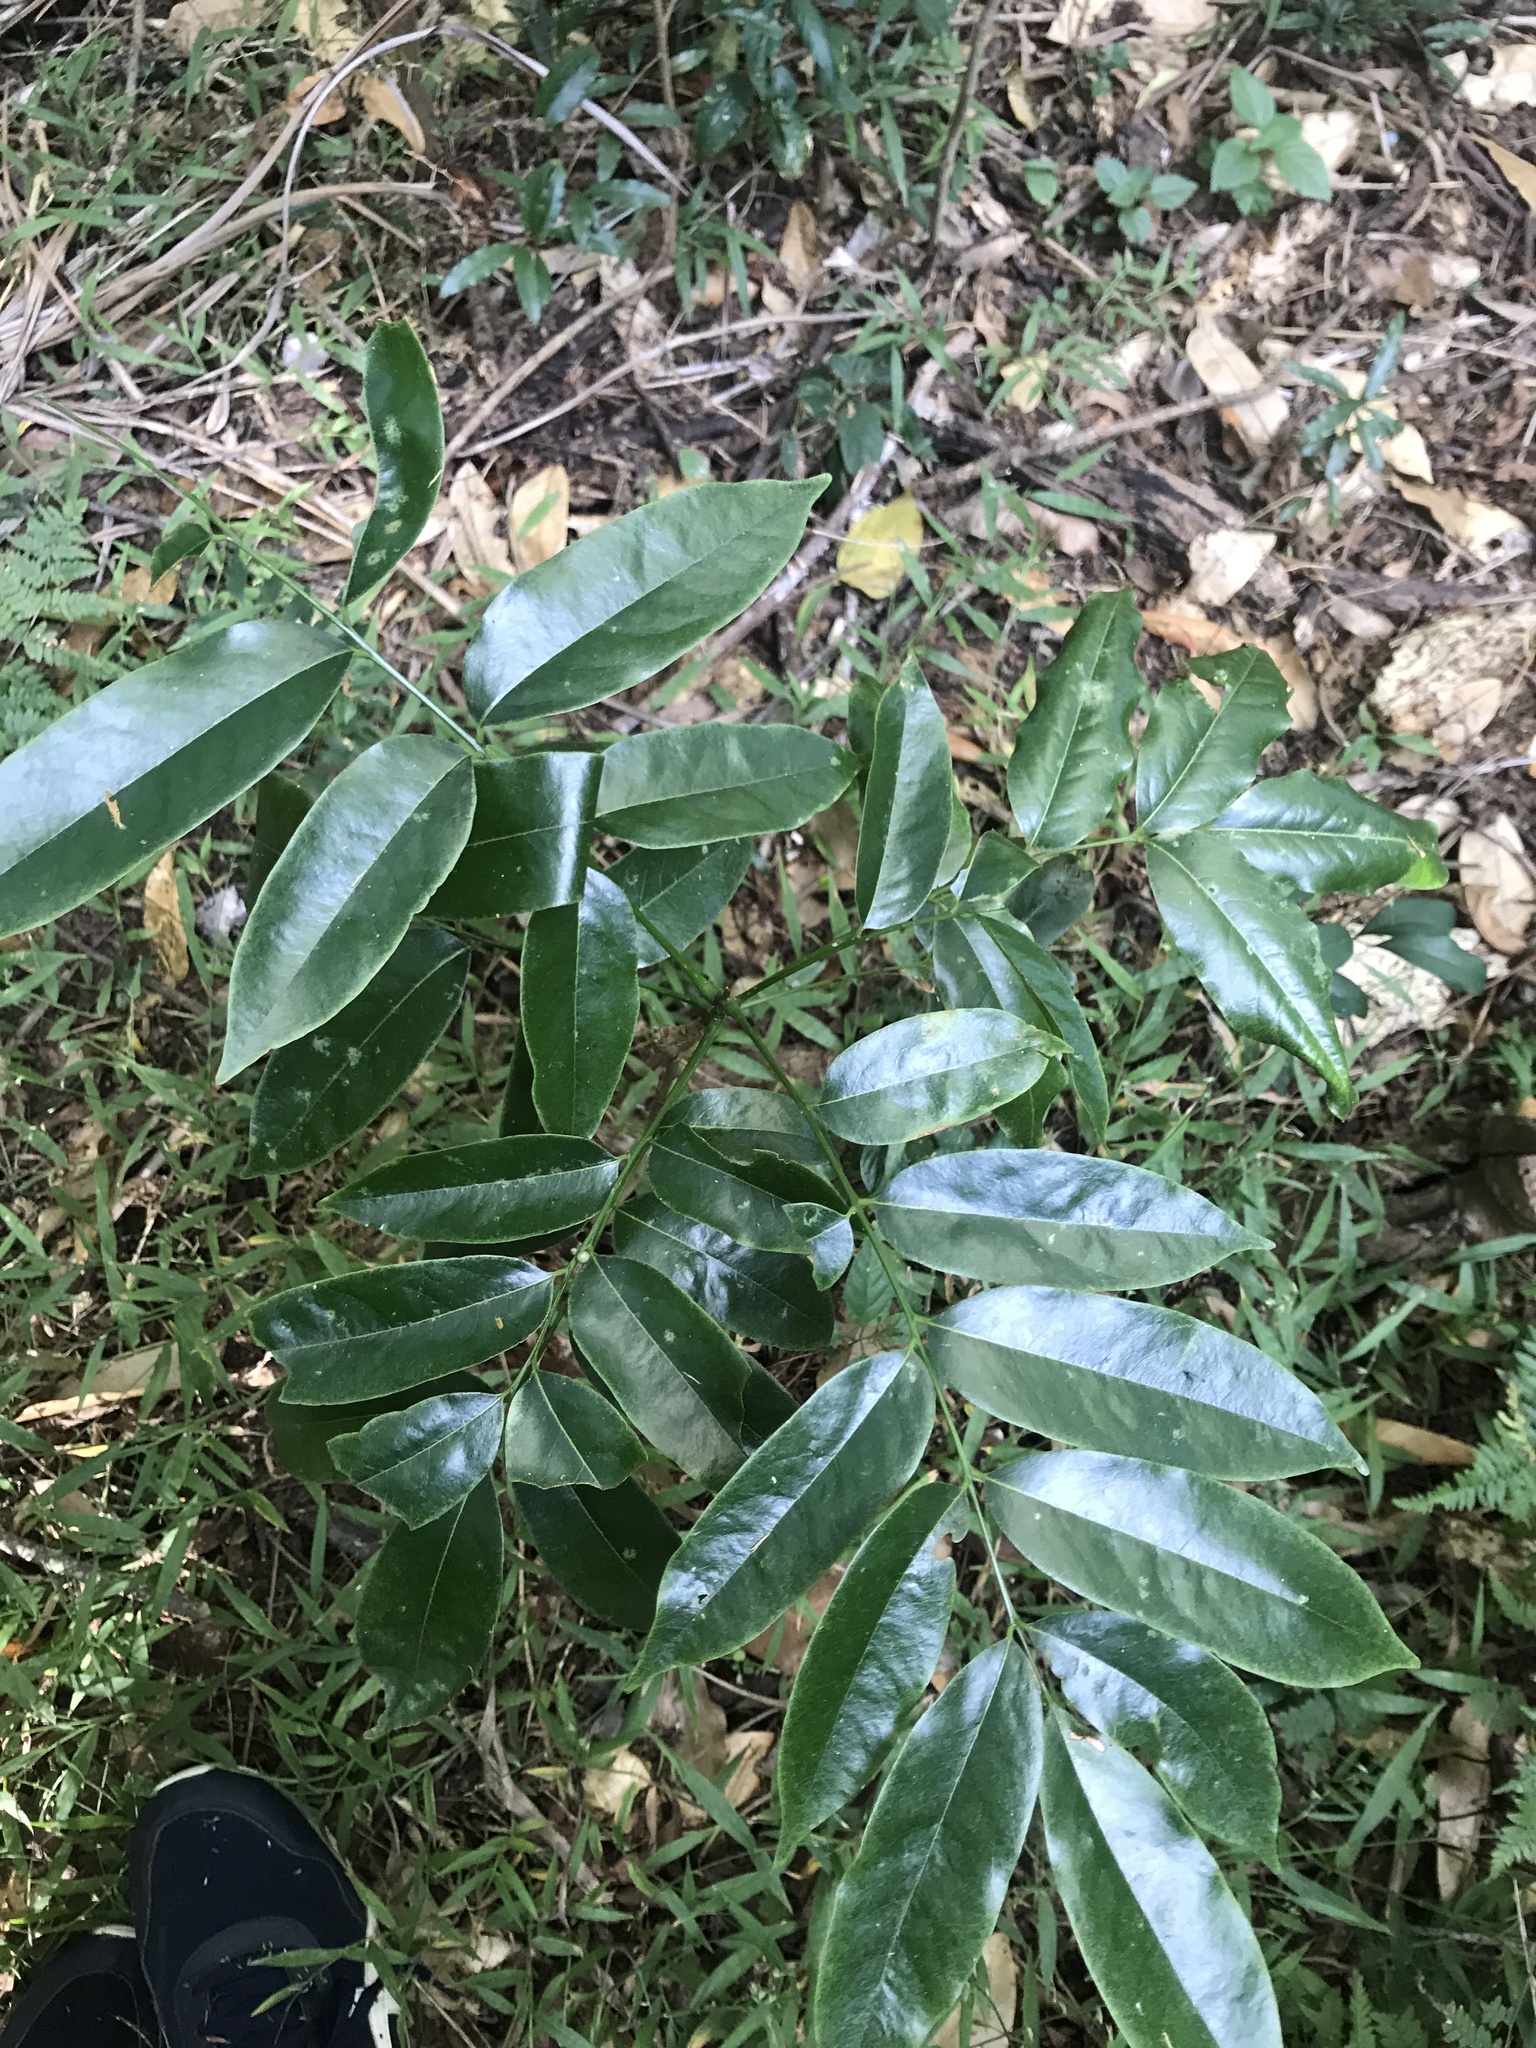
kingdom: Plantae
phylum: Tracheophyta
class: Magnoliopsida
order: Fabales
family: Fabaceae
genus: Castanospermum
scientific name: Castanospermum australe
